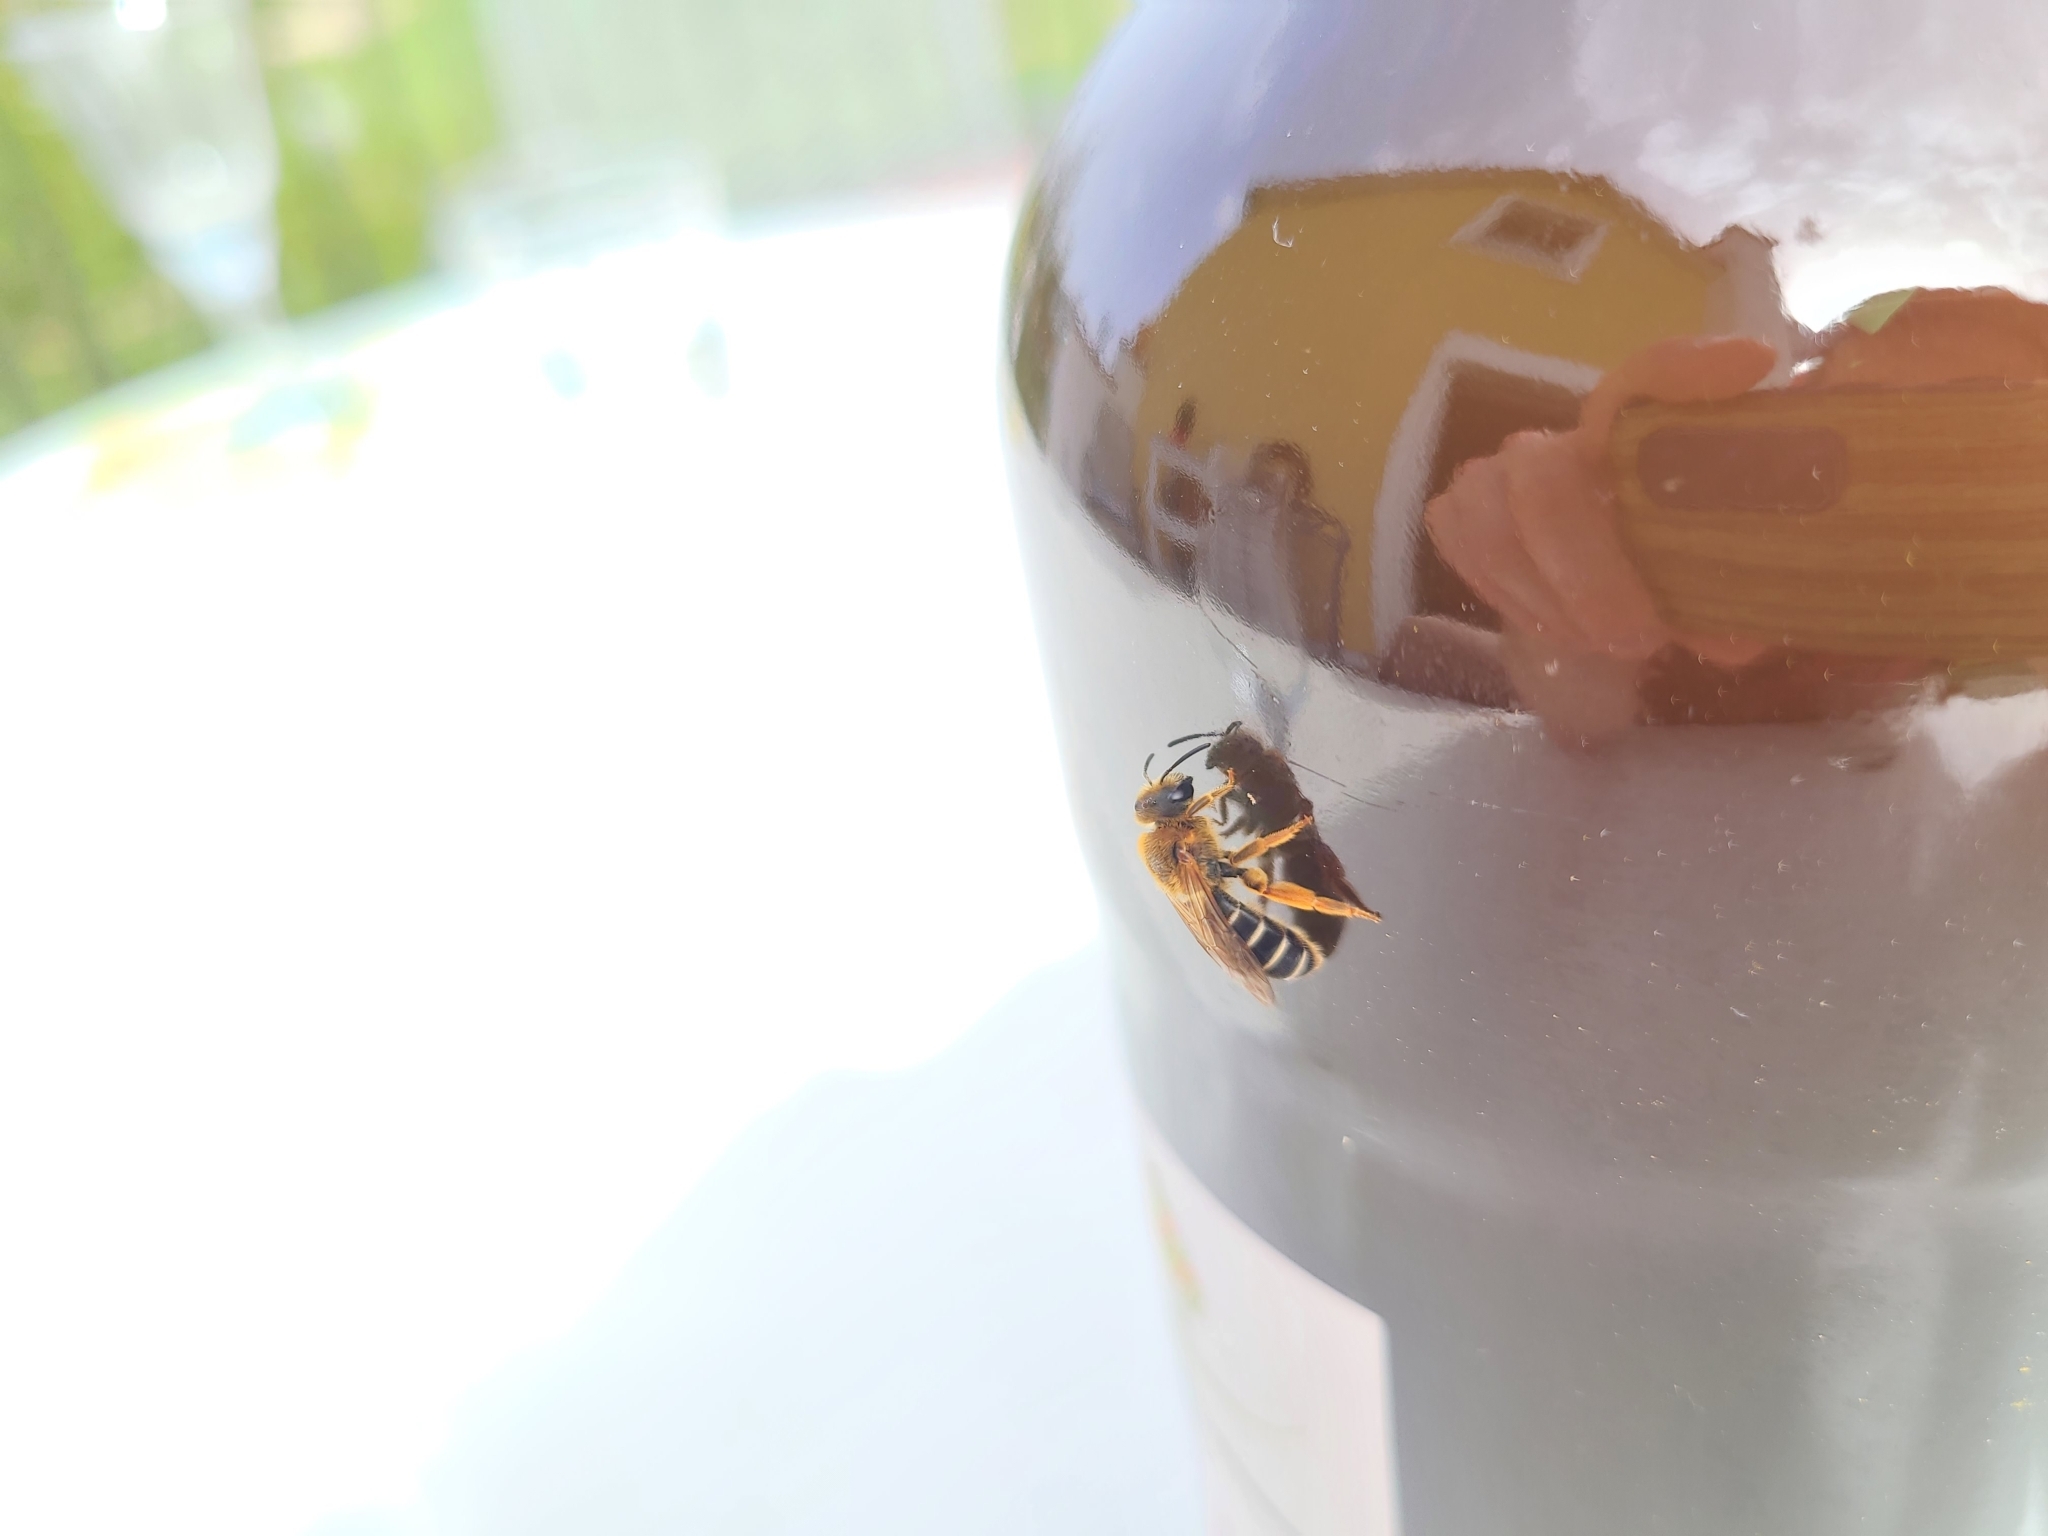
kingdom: Animalia
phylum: Arthropoda
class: Insecta
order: Hymenoptera
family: Halictidae
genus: Halictus
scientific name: Halictus rubicundus
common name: Orange-legged furrow bee
